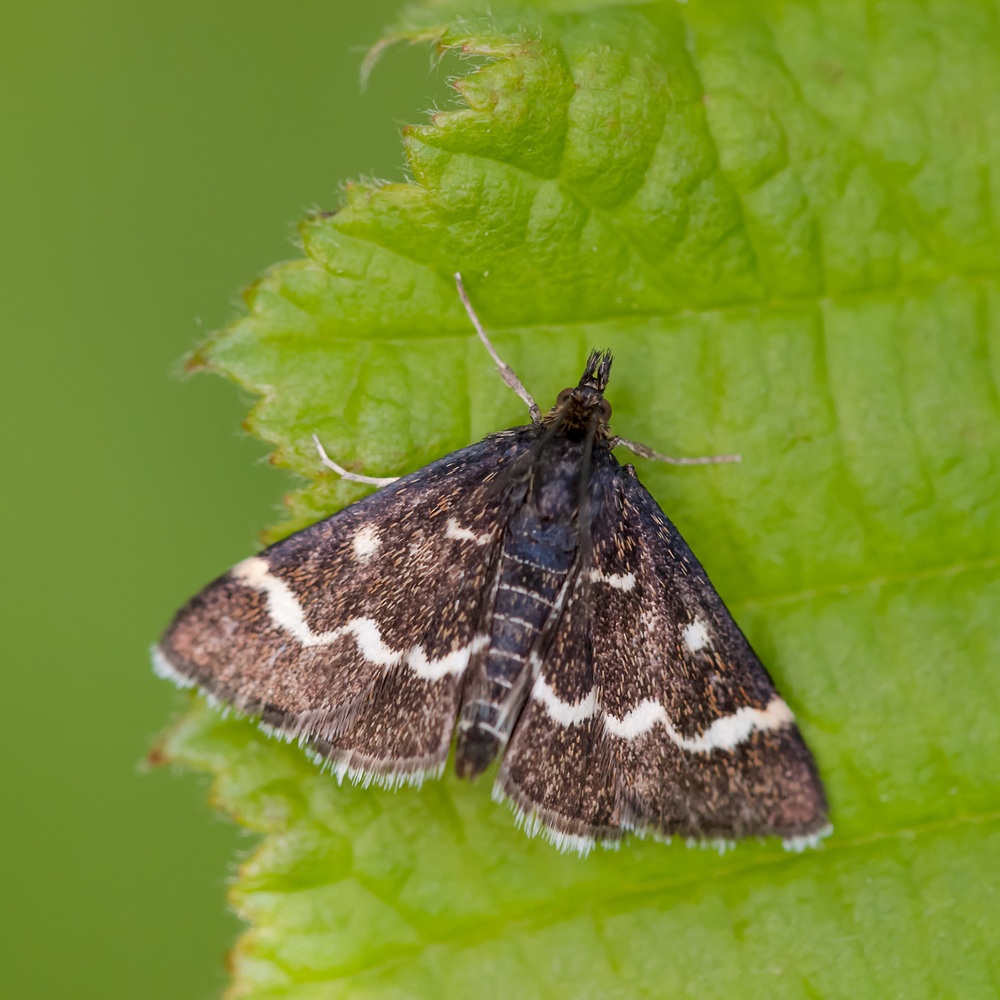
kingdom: Animalia
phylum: Arthropoda
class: Insecta
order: Lepidoptera
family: Crambidae
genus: Pyrausta
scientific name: Pyrausta nigrata
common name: Wavy-barred sable
